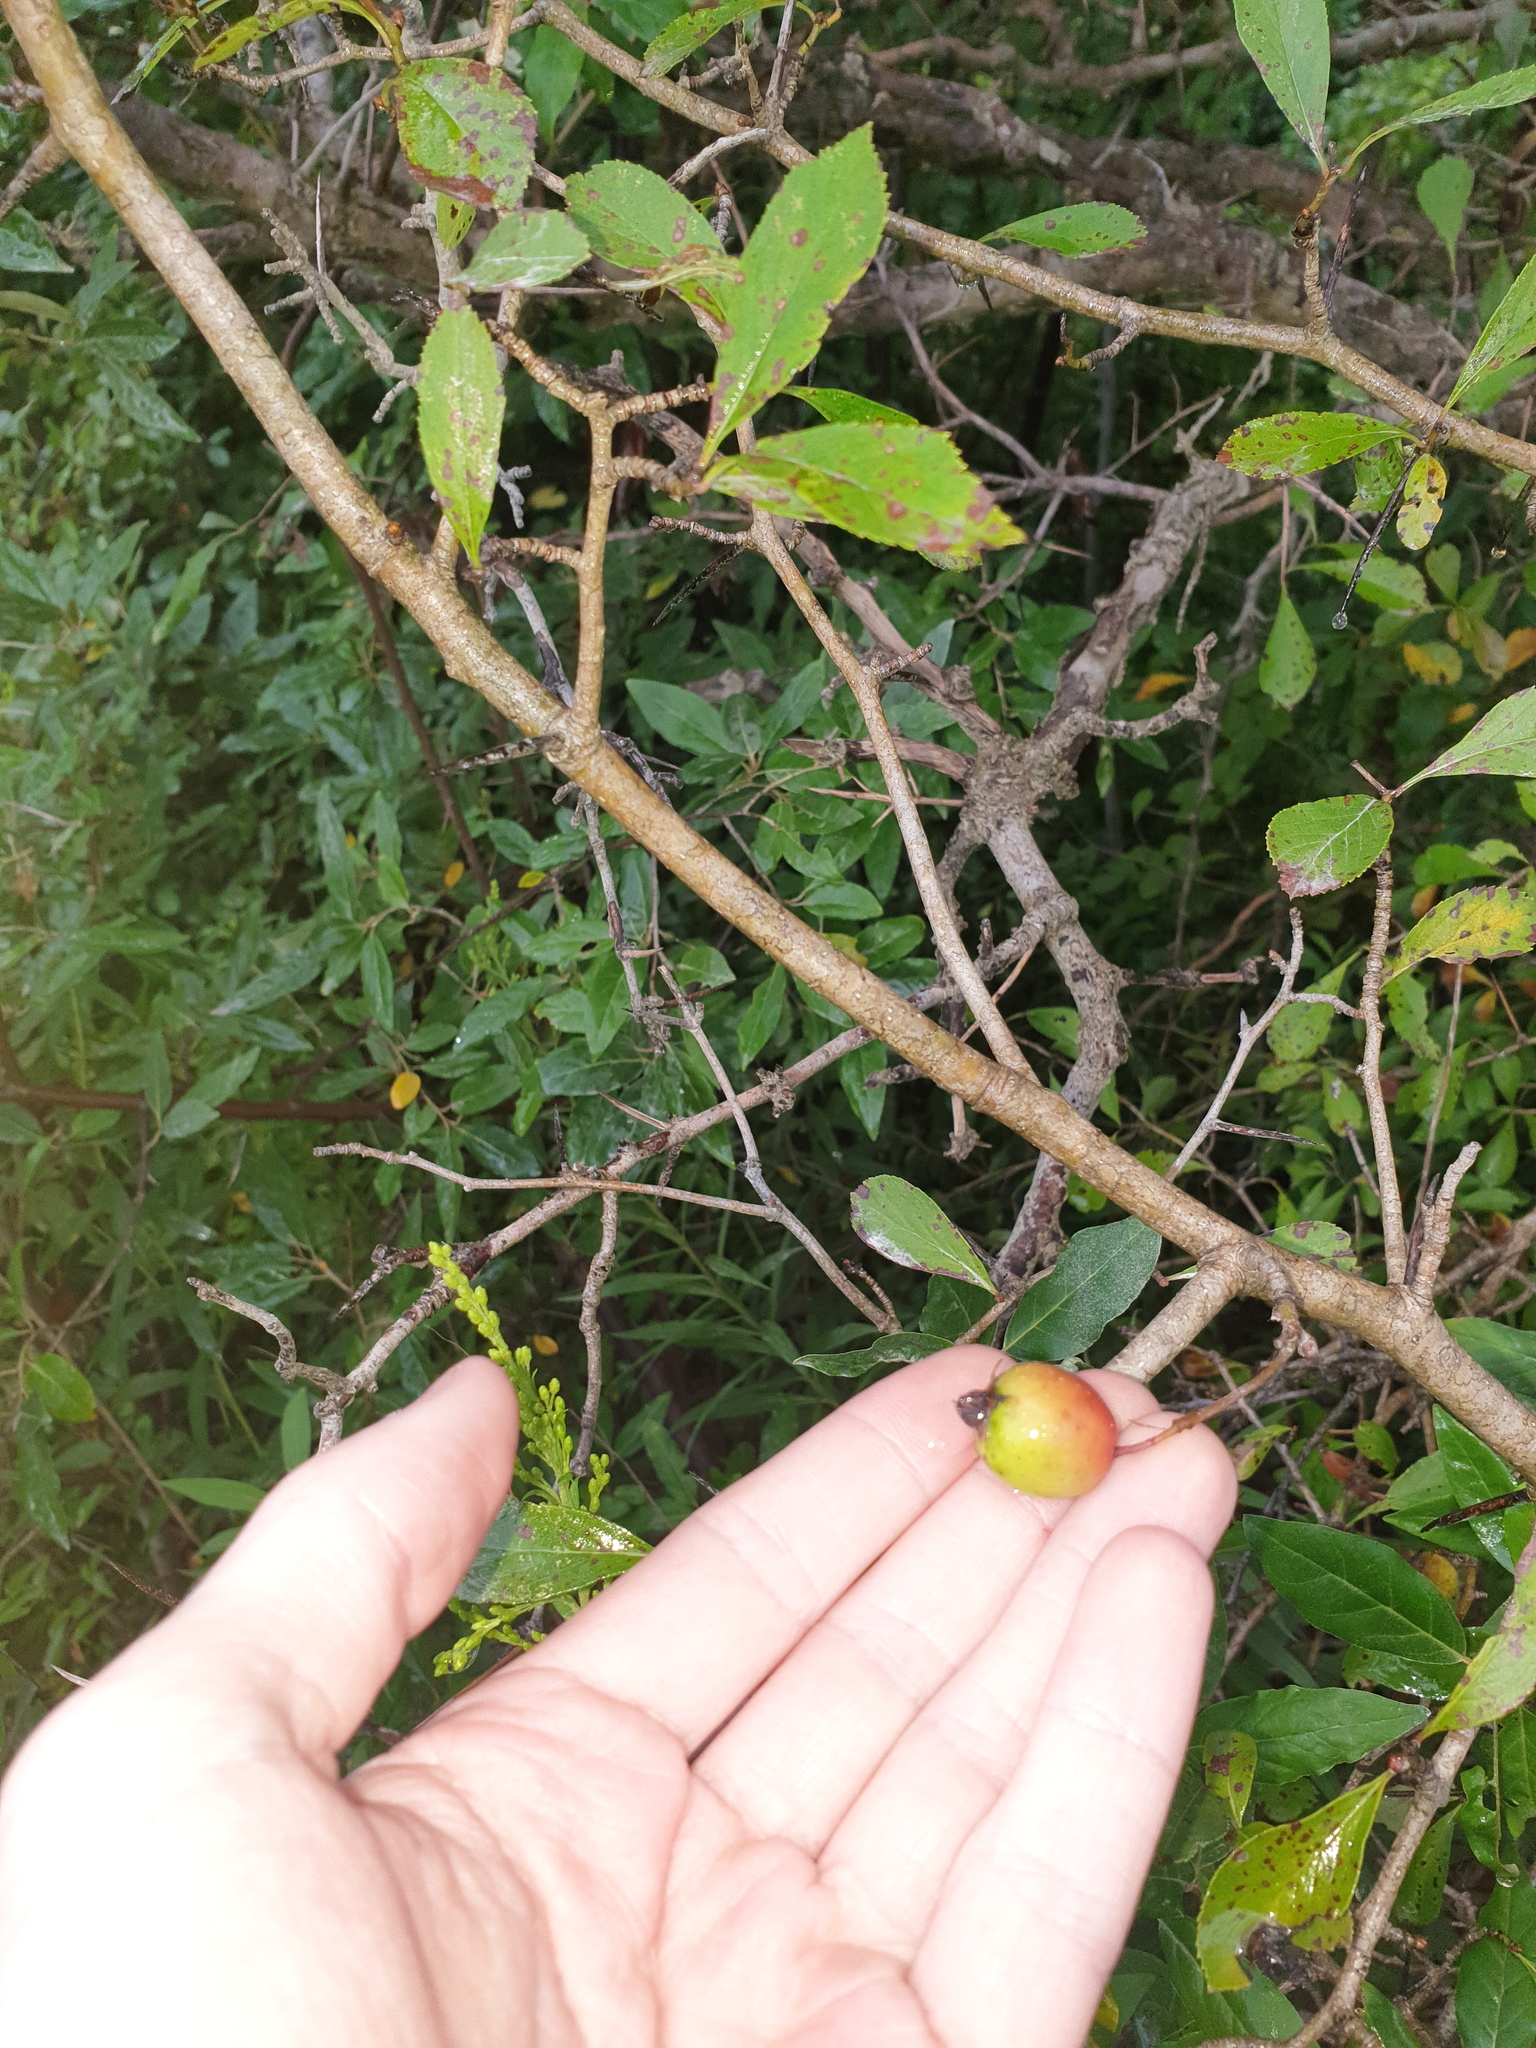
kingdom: Plantae
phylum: Tracheophyta
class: Magnoliopsida
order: Rosales
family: Rosaceae
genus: Crataegus
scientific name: Crataegus crus-galli
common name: Cockspurthorn
